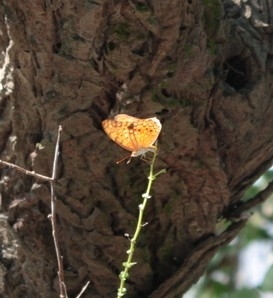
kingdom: Animalia
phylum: Arthropoda
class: Insecta
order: Lepidoptera
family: Nymphalidae
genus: Phalanta
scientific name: Phalanta phalantha
